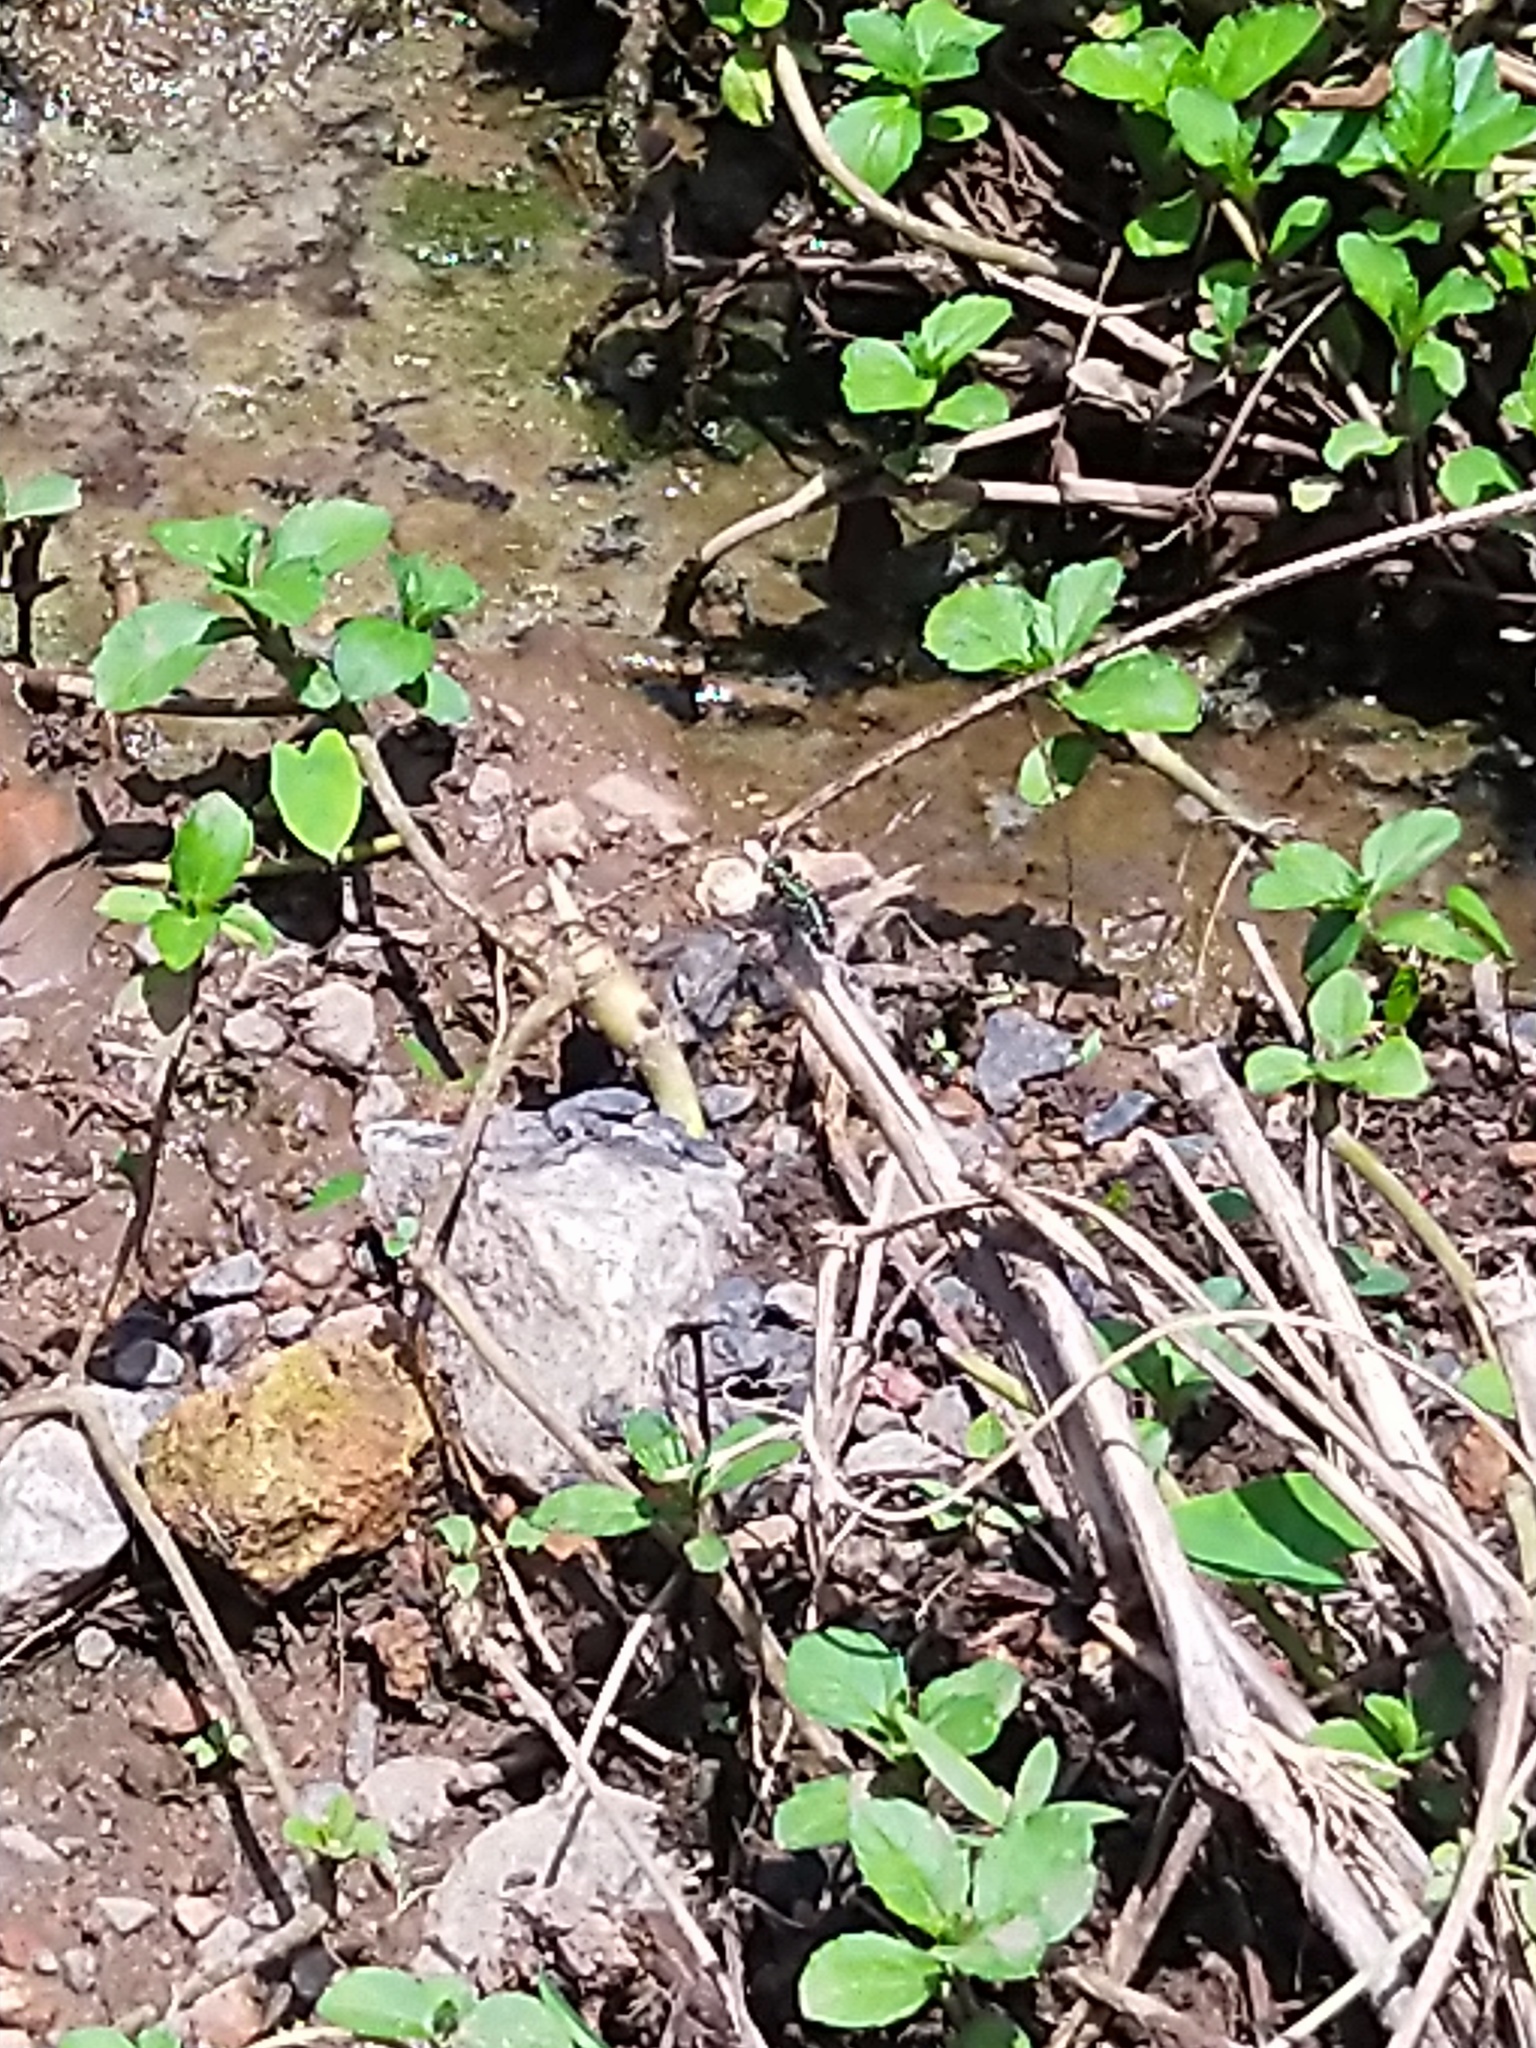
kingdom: Animalia
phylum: Arthropoda
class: Insecta
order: Odonata
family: Libellulidae
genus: Orthetrum
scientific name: Orthetrum sabina
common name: Slender skimmer
